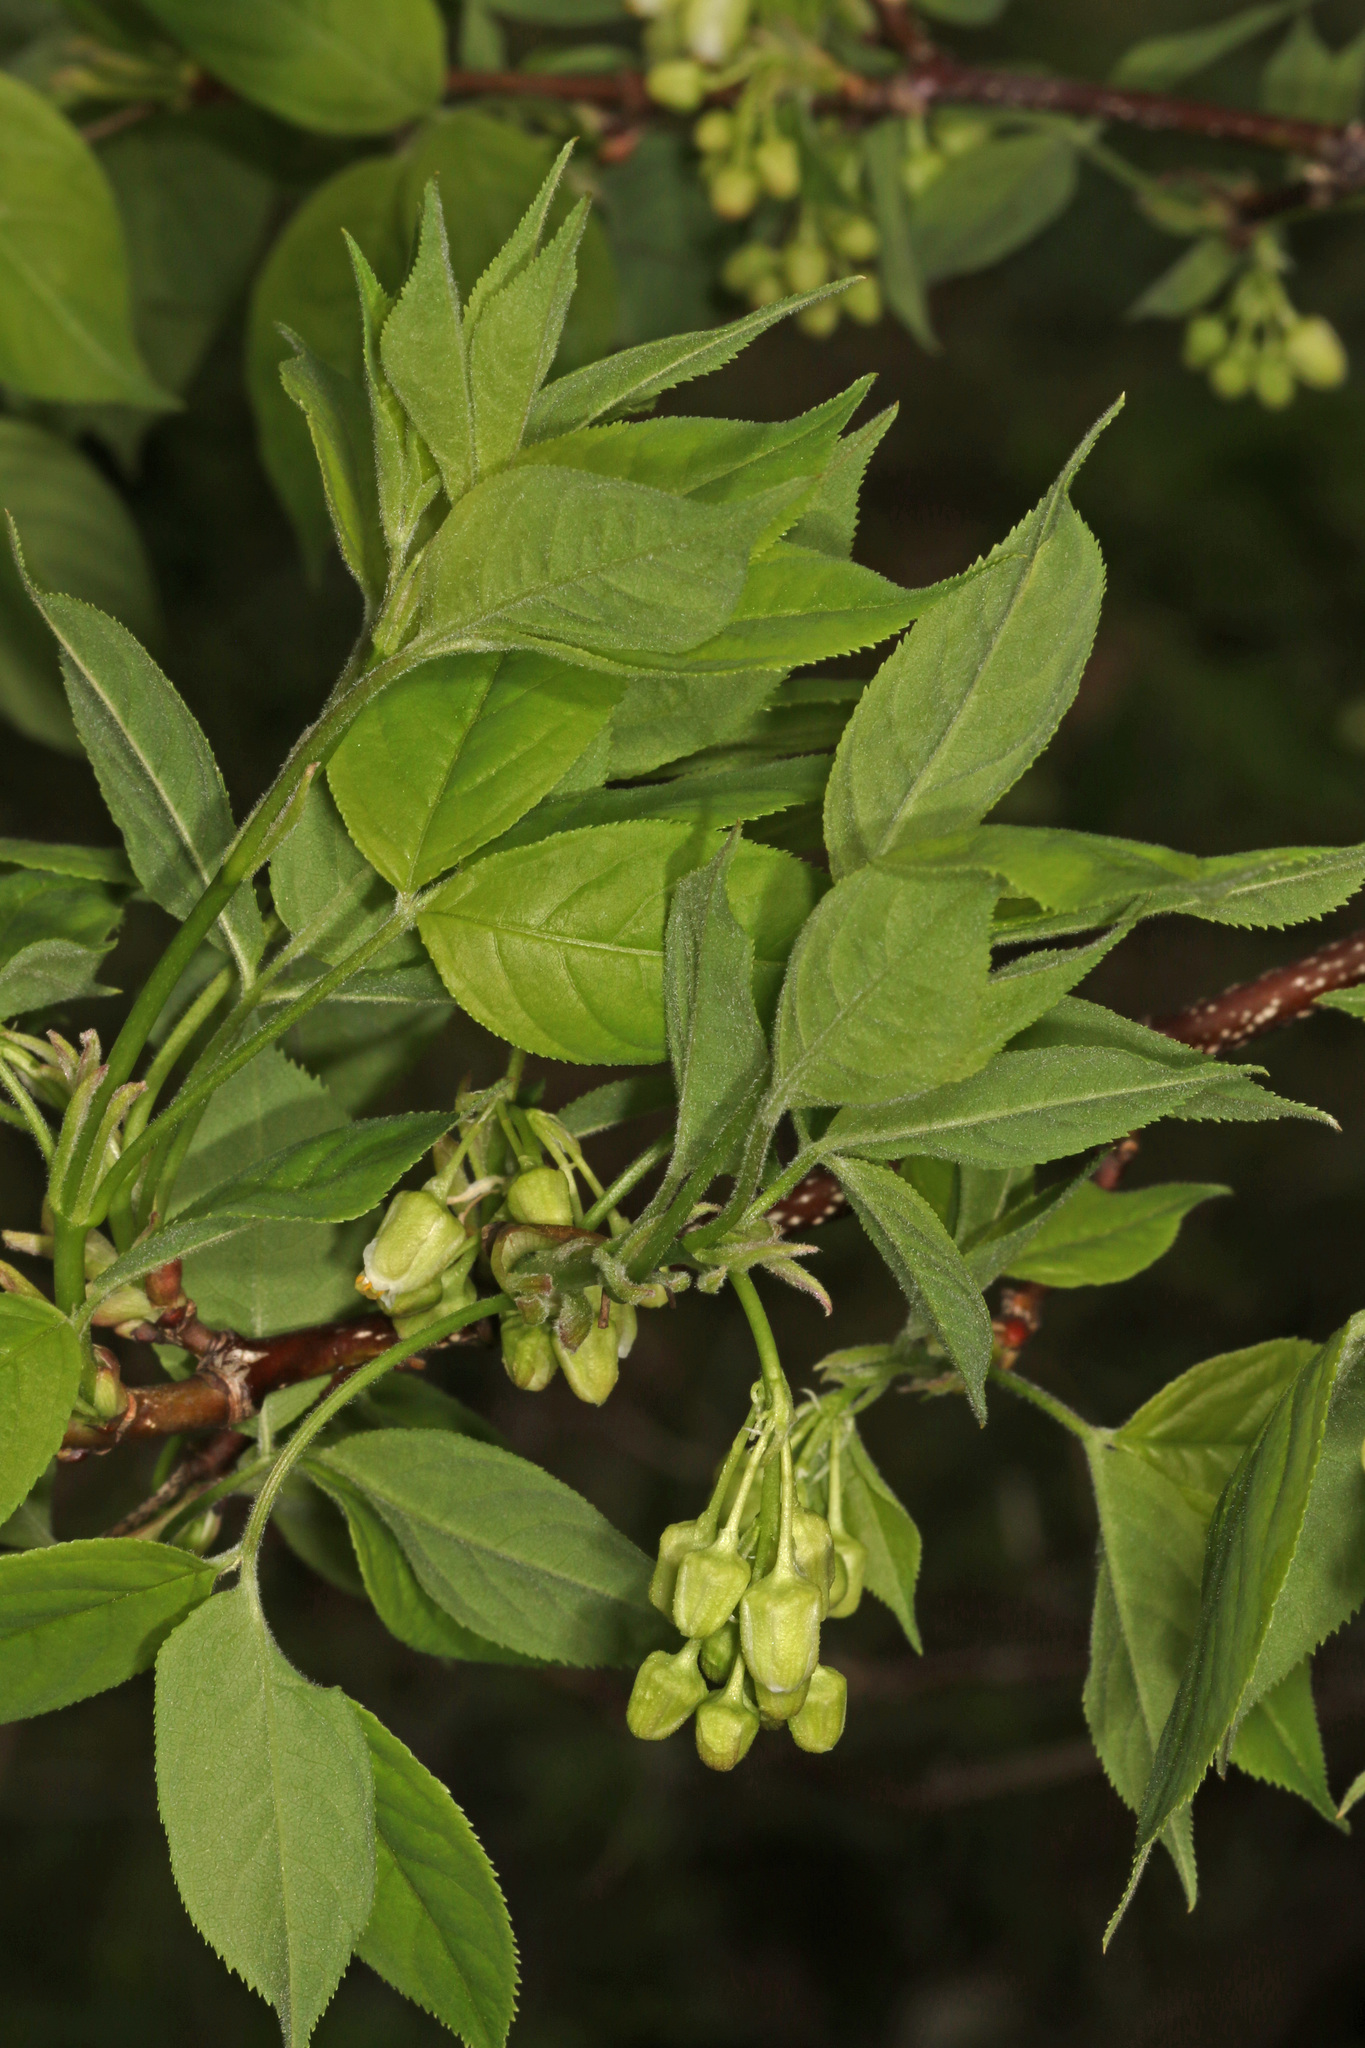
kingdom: Plantae
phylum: Tracheophyta
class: Magnoliopsida
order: Crossosomatales
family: Staphyleaceae
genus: Staphylea
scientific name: Staphylea trifolia
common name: American bladdernut
